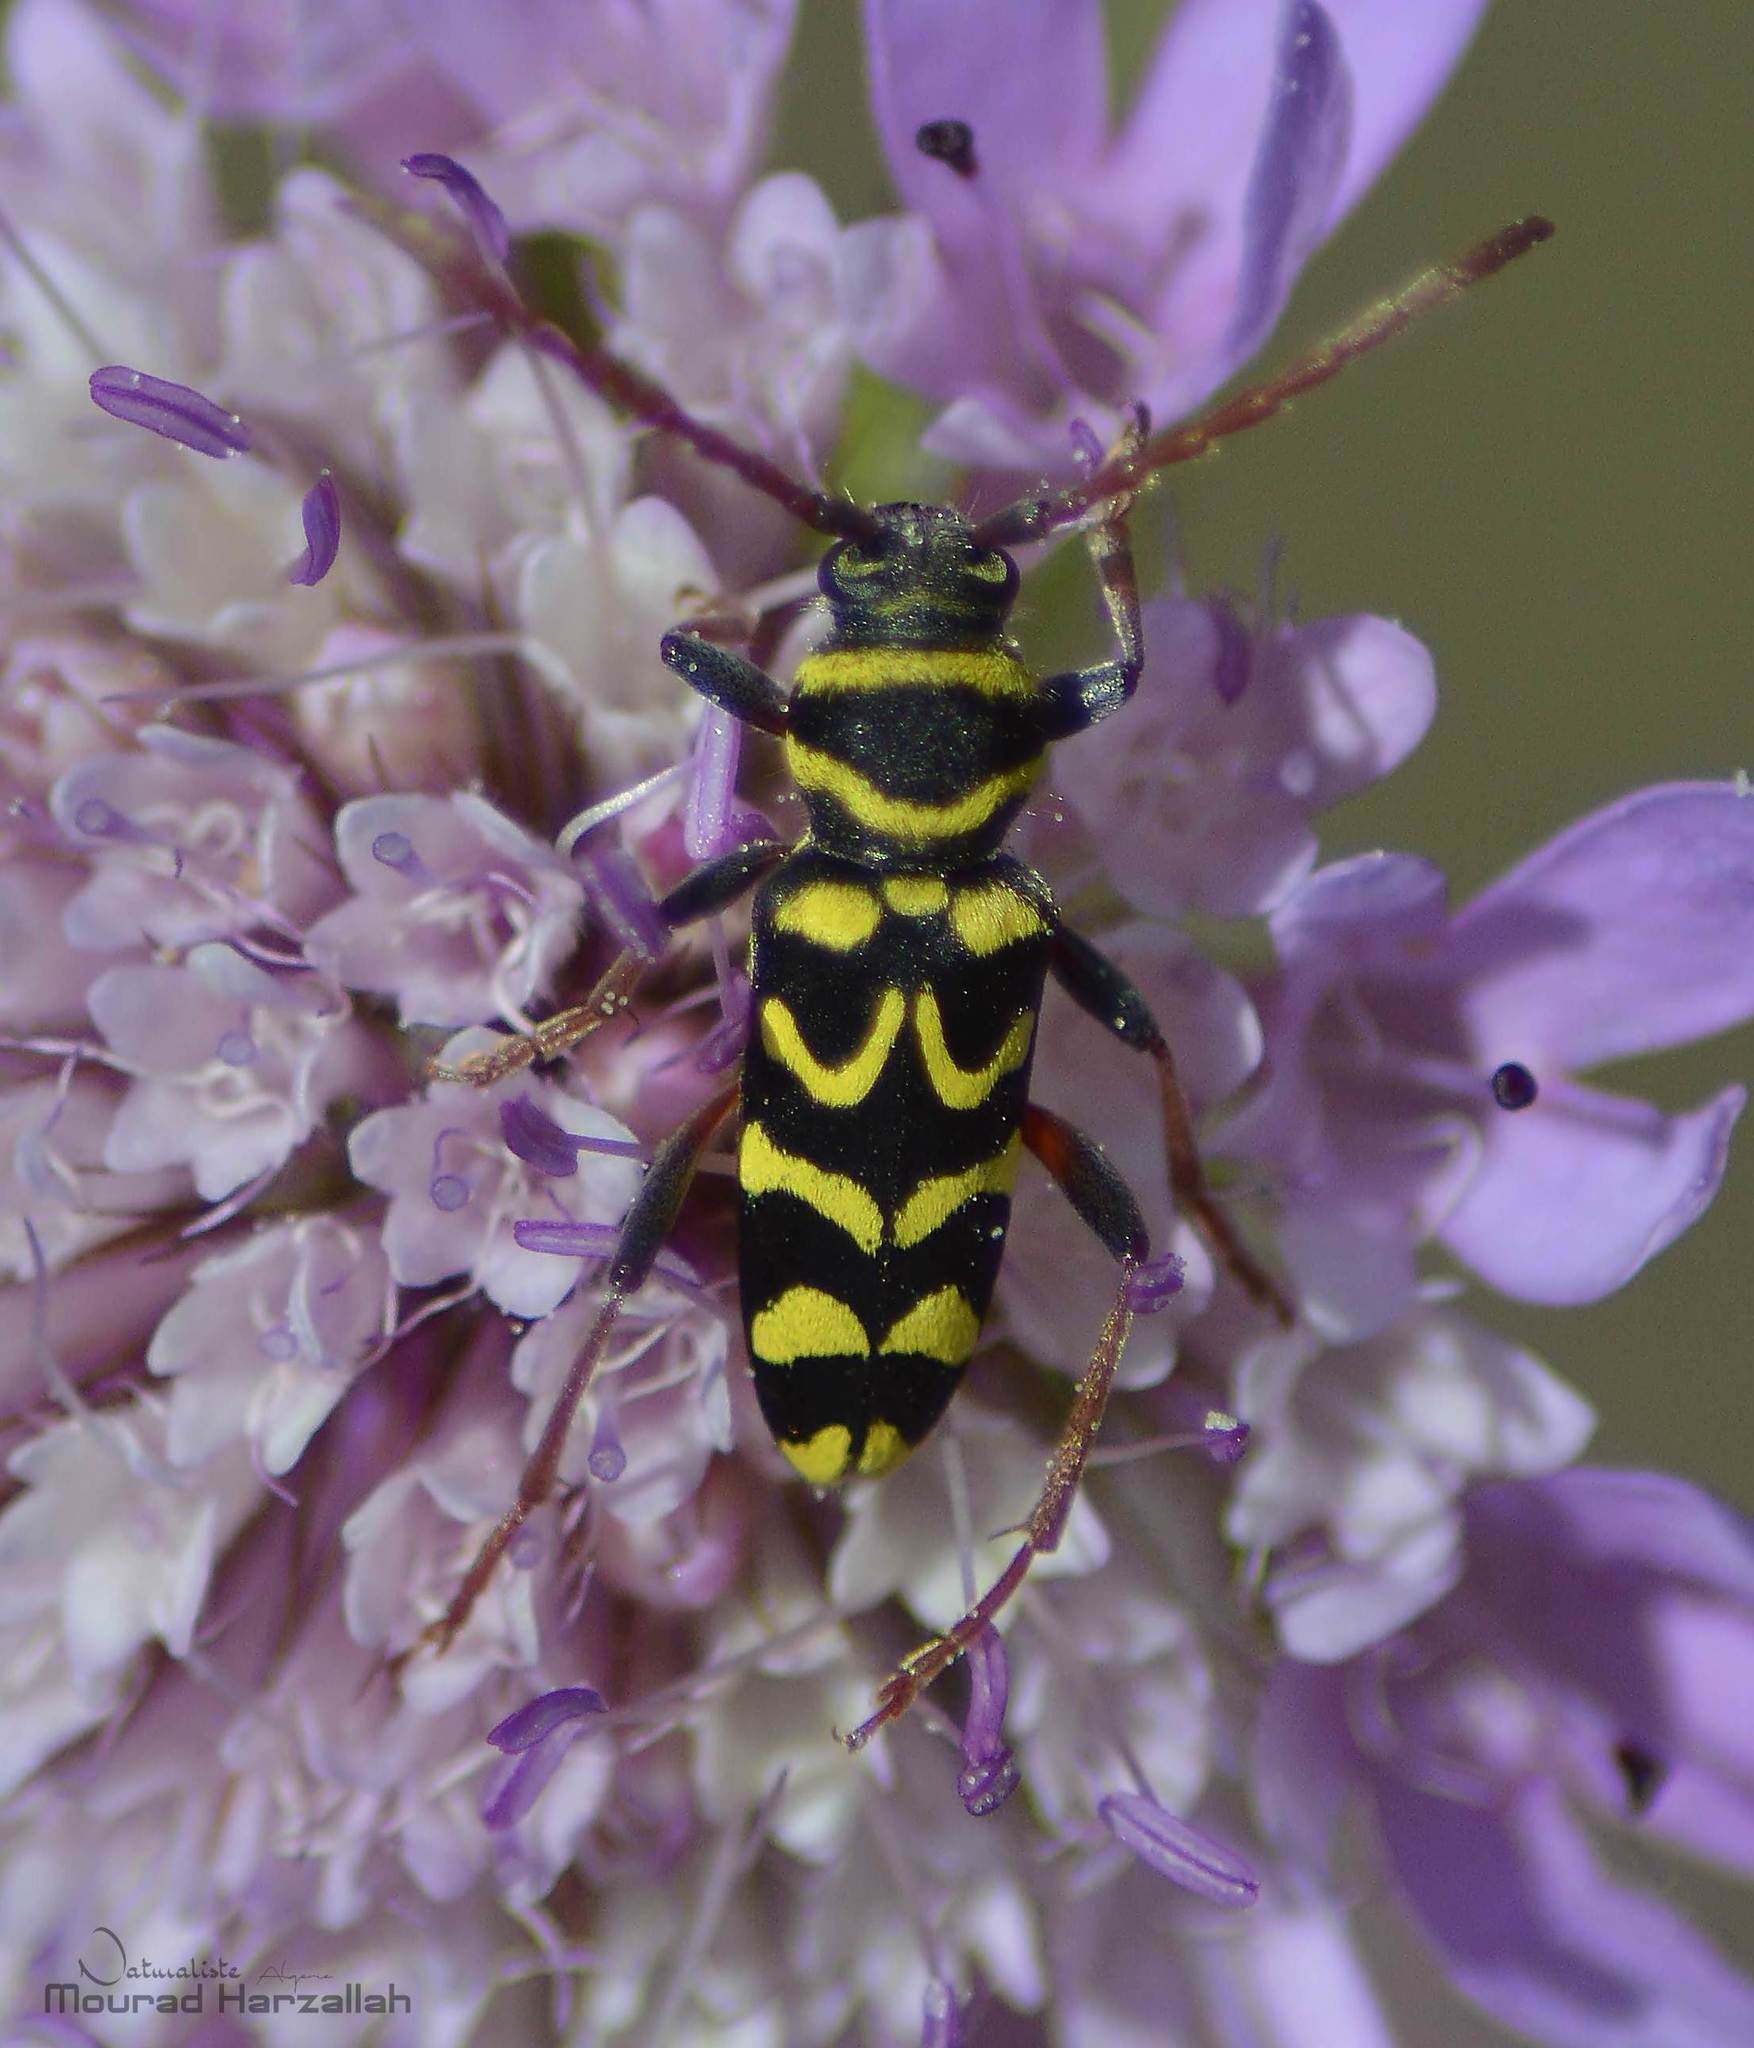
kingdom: Animalia
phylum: Arthropoda
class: Insecta
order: Coleoptera
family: Cerambycidae
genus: Neoplagionotus
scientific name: Neoplagionotus scalaris
